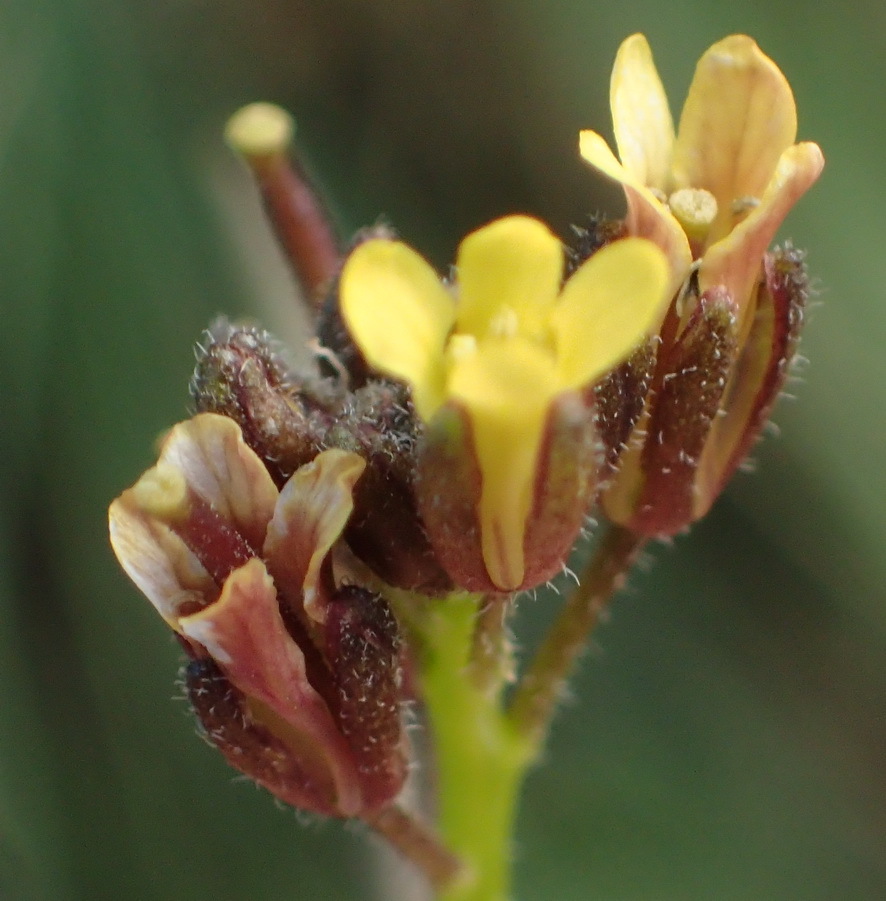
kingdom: Plantae
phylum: Tracheophyta
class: Magnoliopsida
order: Brassicales
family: Brassicaceae
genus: Erucastrum
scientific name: Erucastrum strigosum
